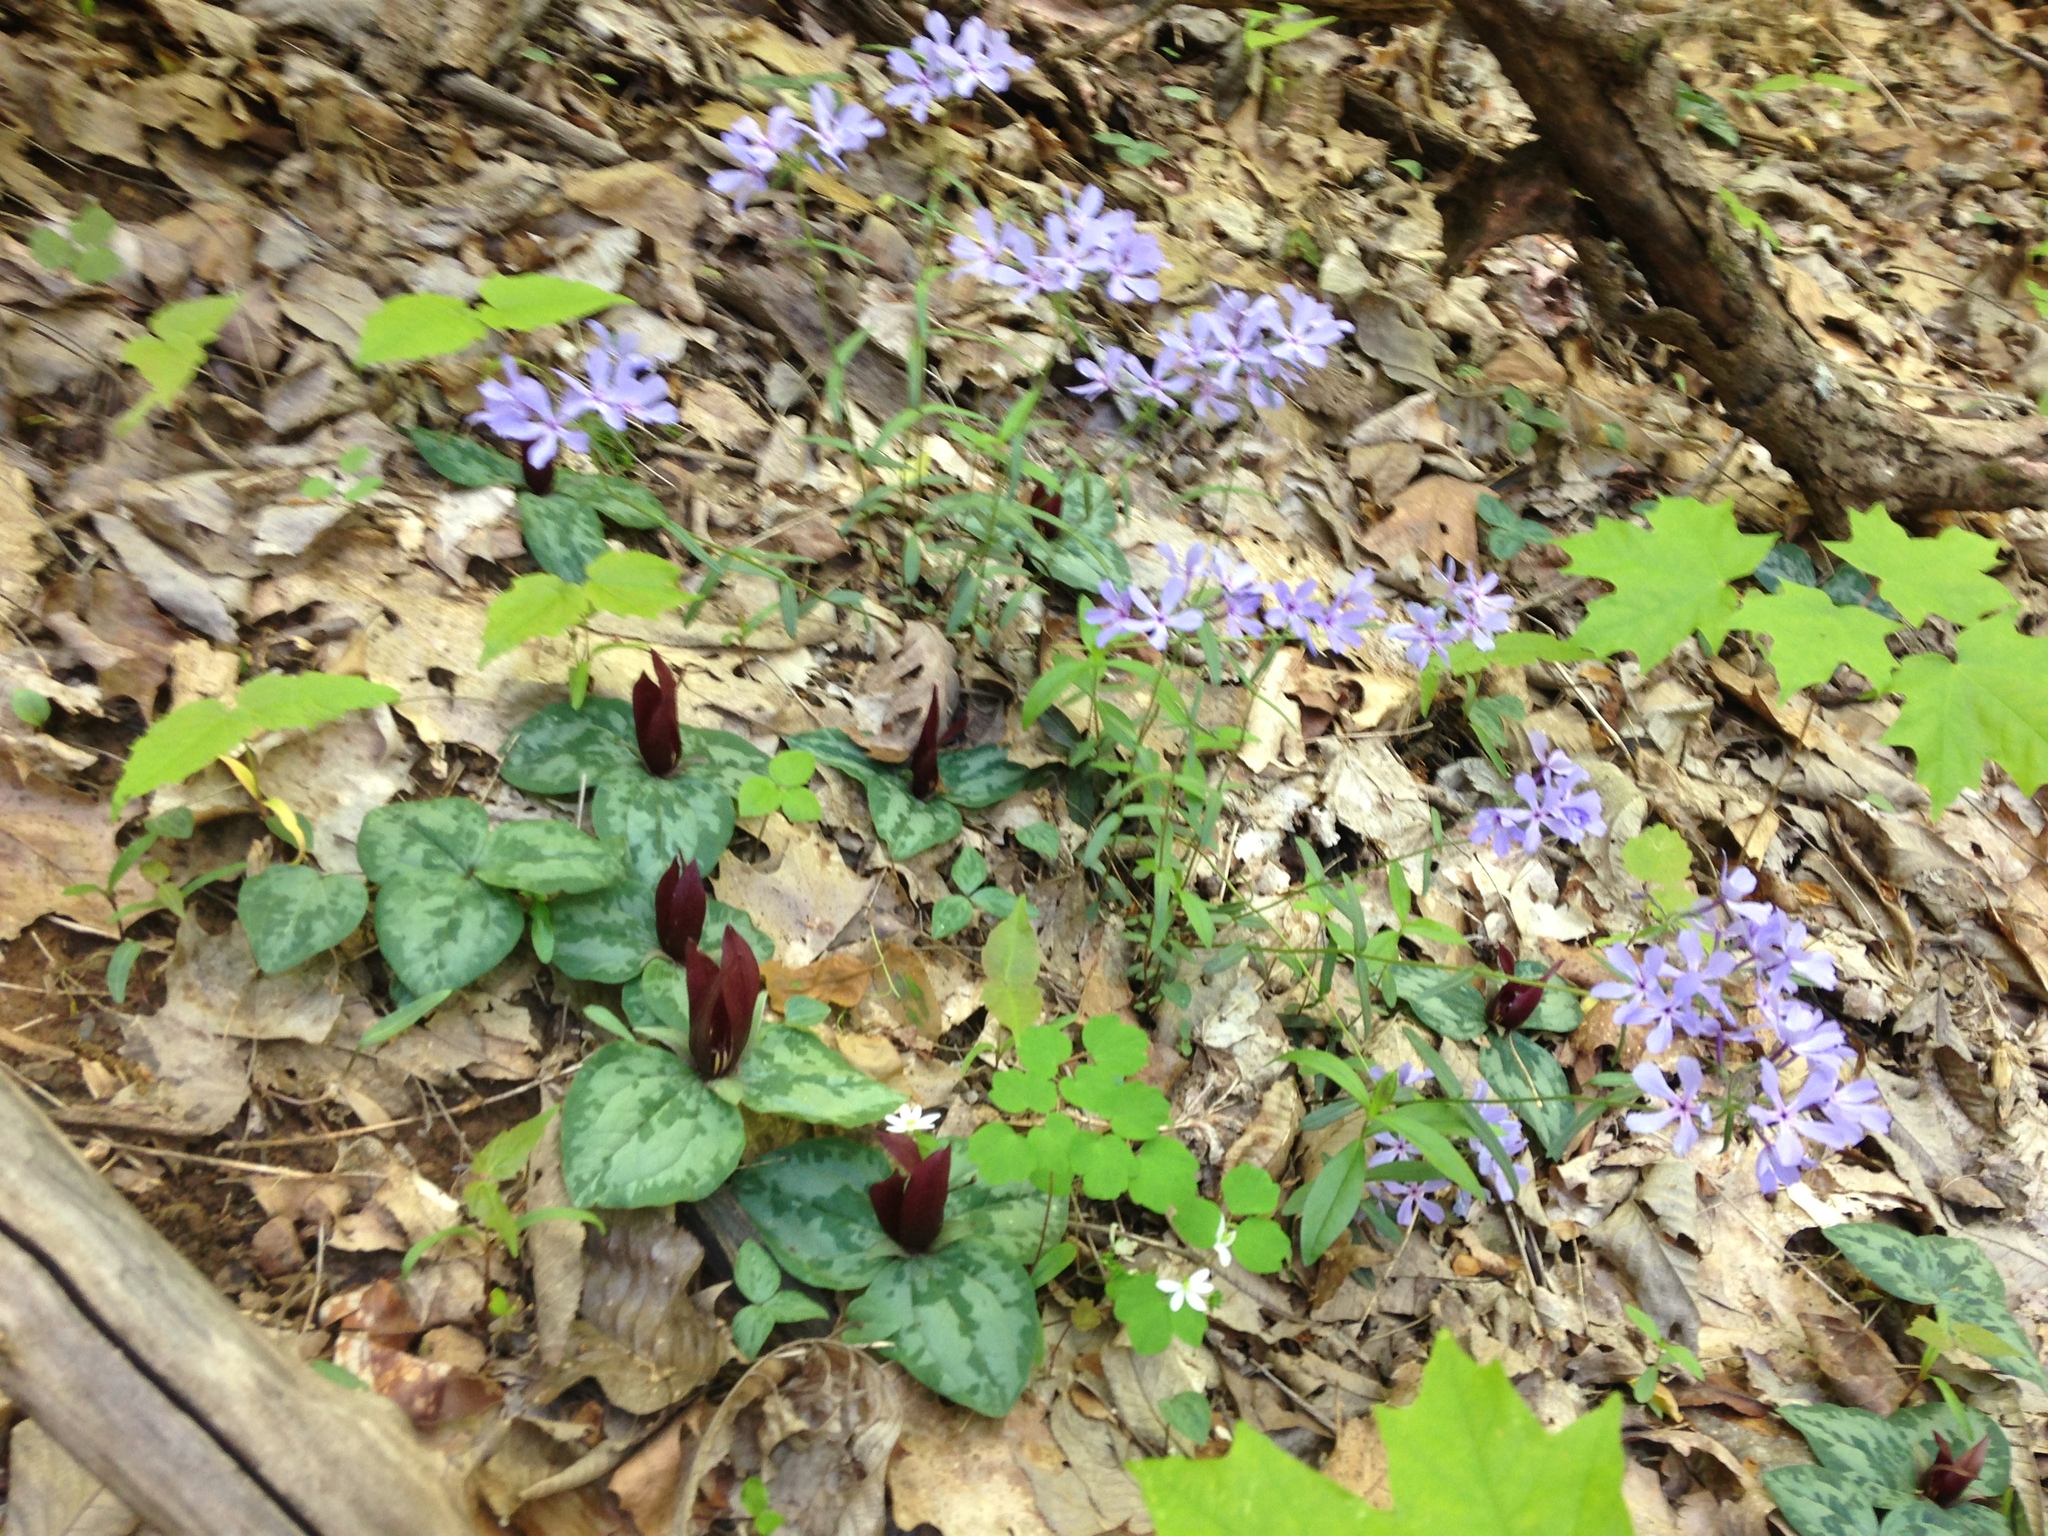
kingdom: Plantae
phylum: Tracheophyta
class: Liliopsida
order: Liliales
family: Melanthiaceae
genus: Trillium
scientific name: Trillium decumbens
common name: Decumbent trillium
